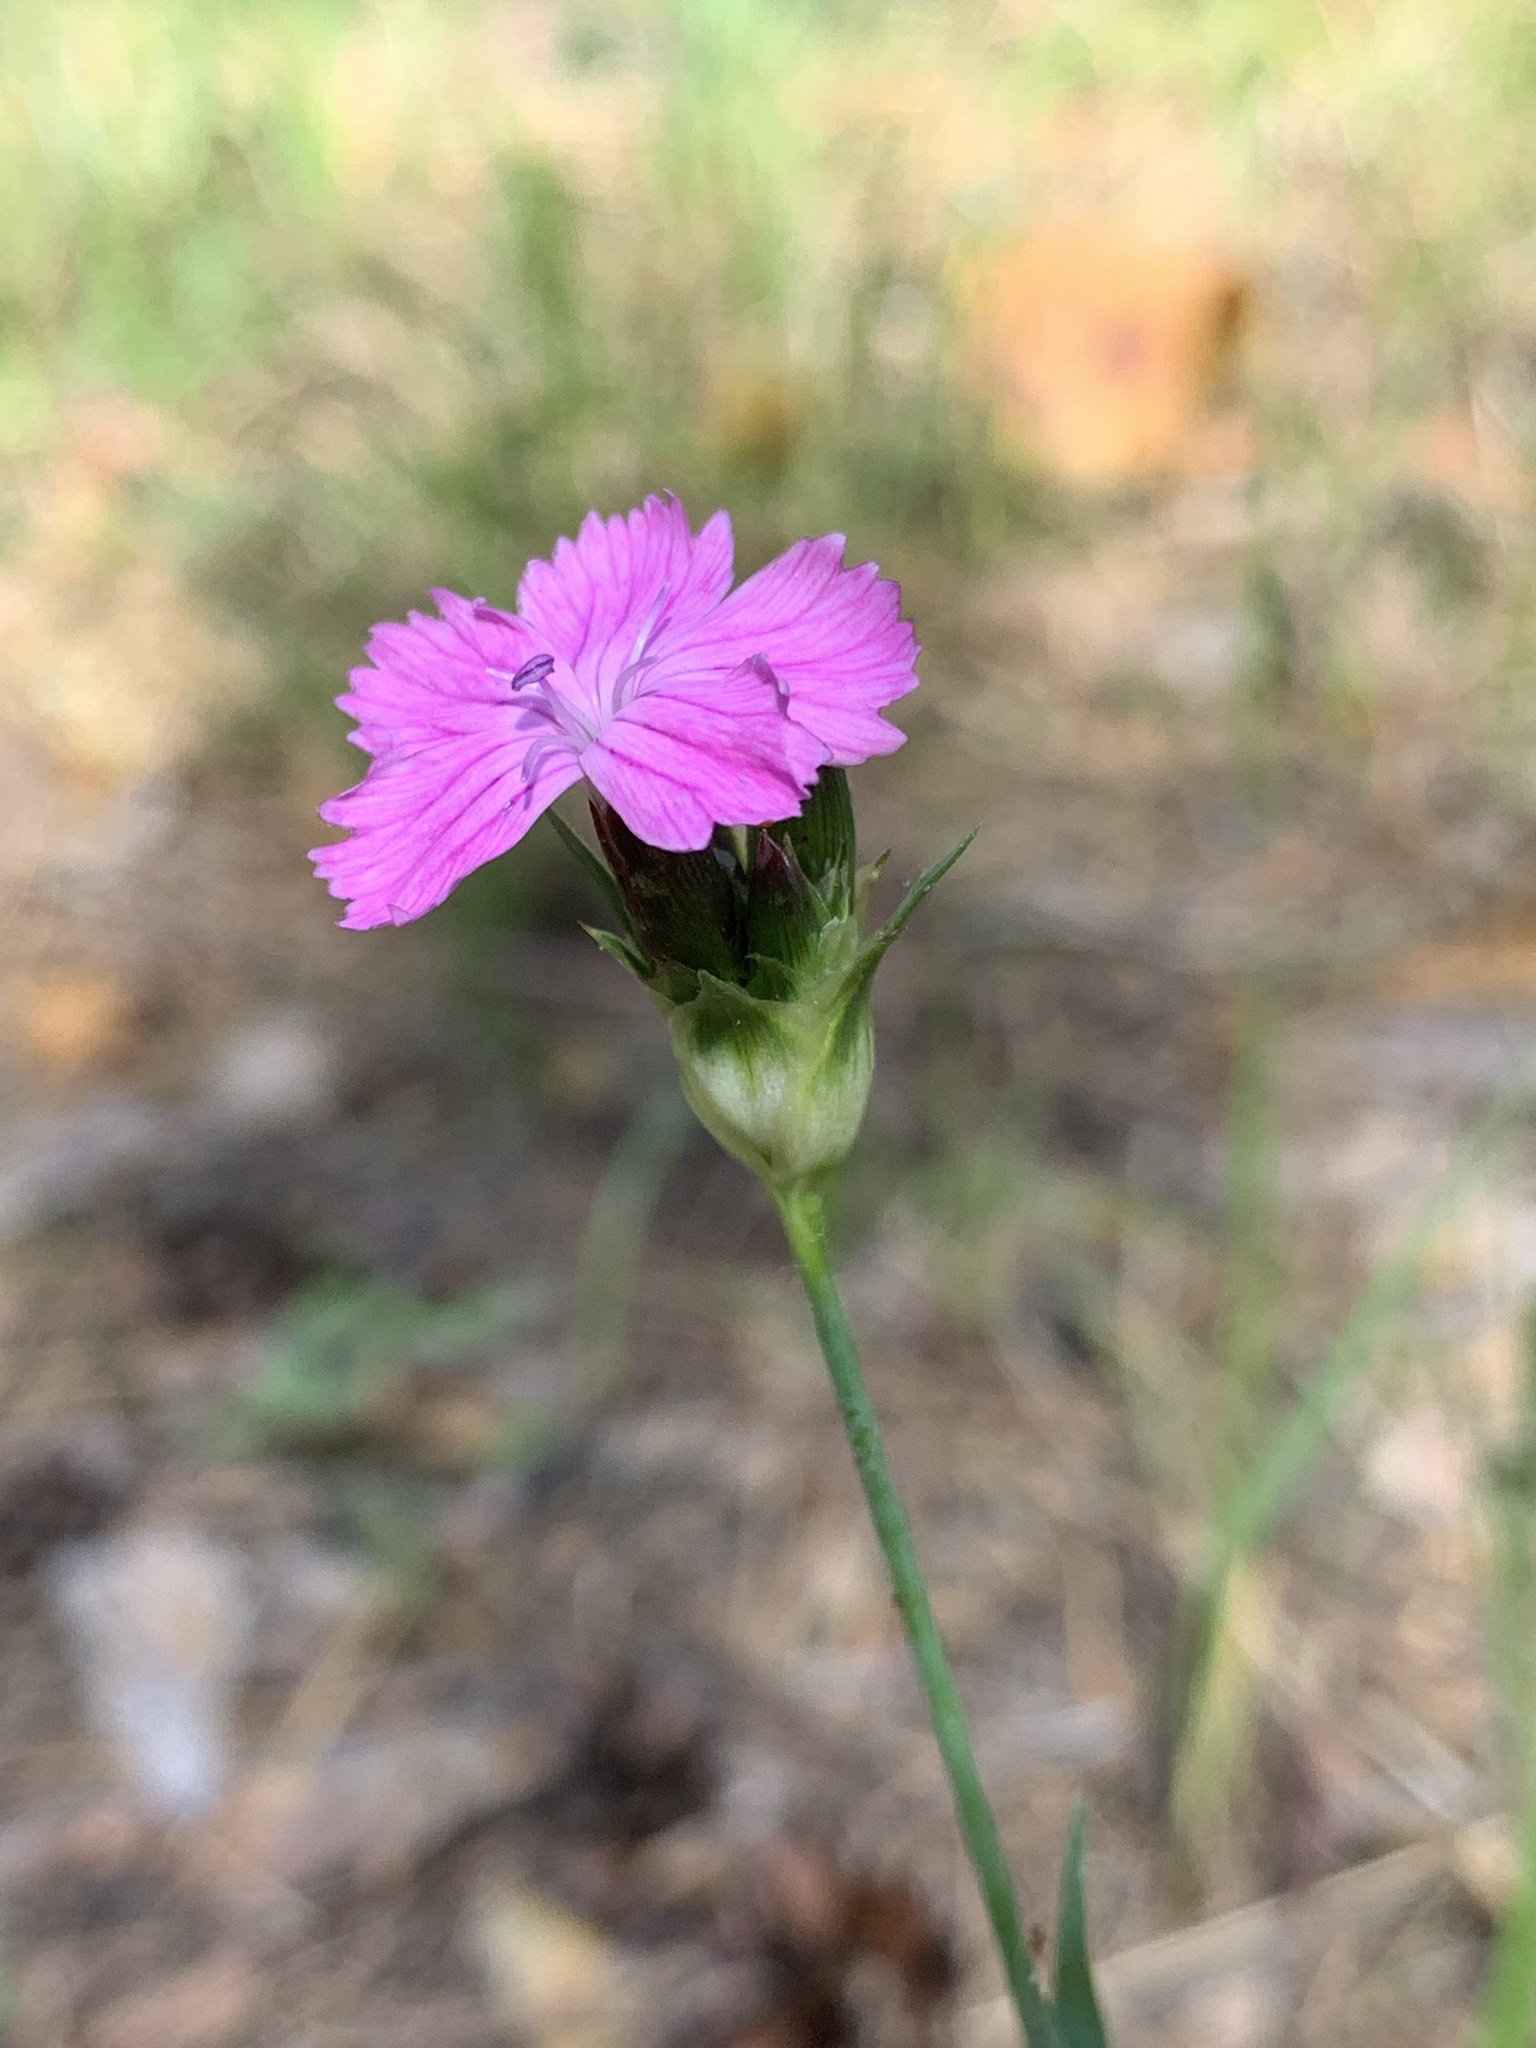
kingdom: Plantae
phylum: Tracheophyta
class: Magnoliopsida
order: Caryophyllales
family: Caryophyllaceae
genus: Dianthus
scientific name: Dianthus capitatus
